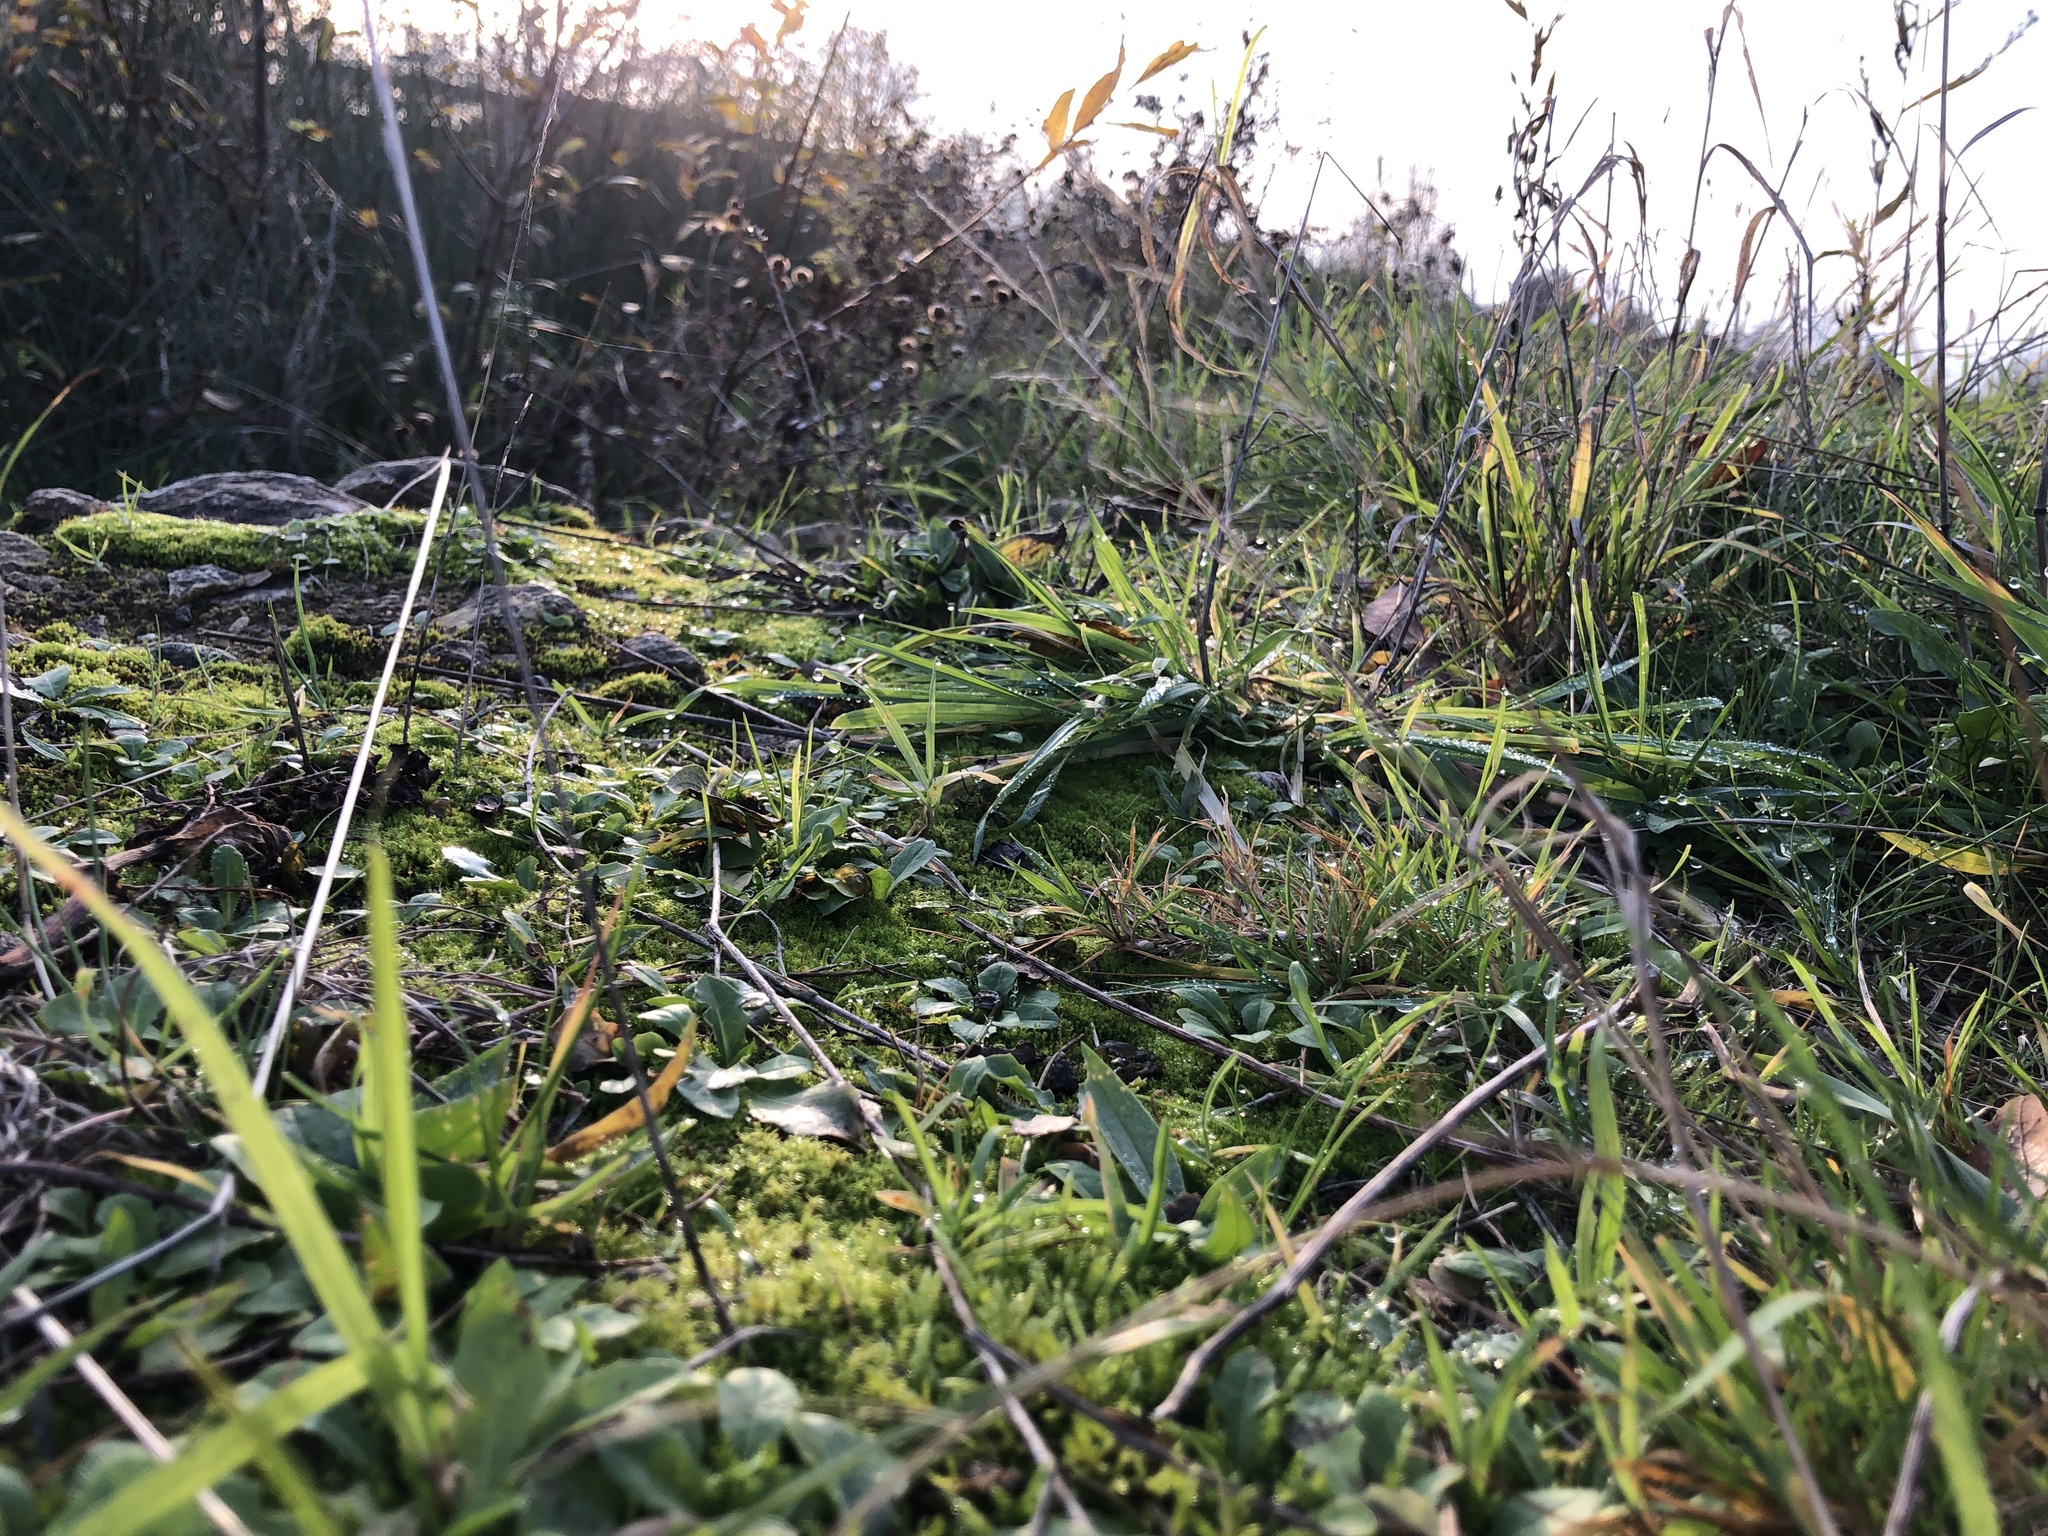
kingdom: Plantae
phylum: Bryophyta
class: Bryopsida
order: Hypnales
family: Brachytheciaceae
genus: Brachythecium
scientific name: Brachythecium albicans
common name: Whitish ragged moss
